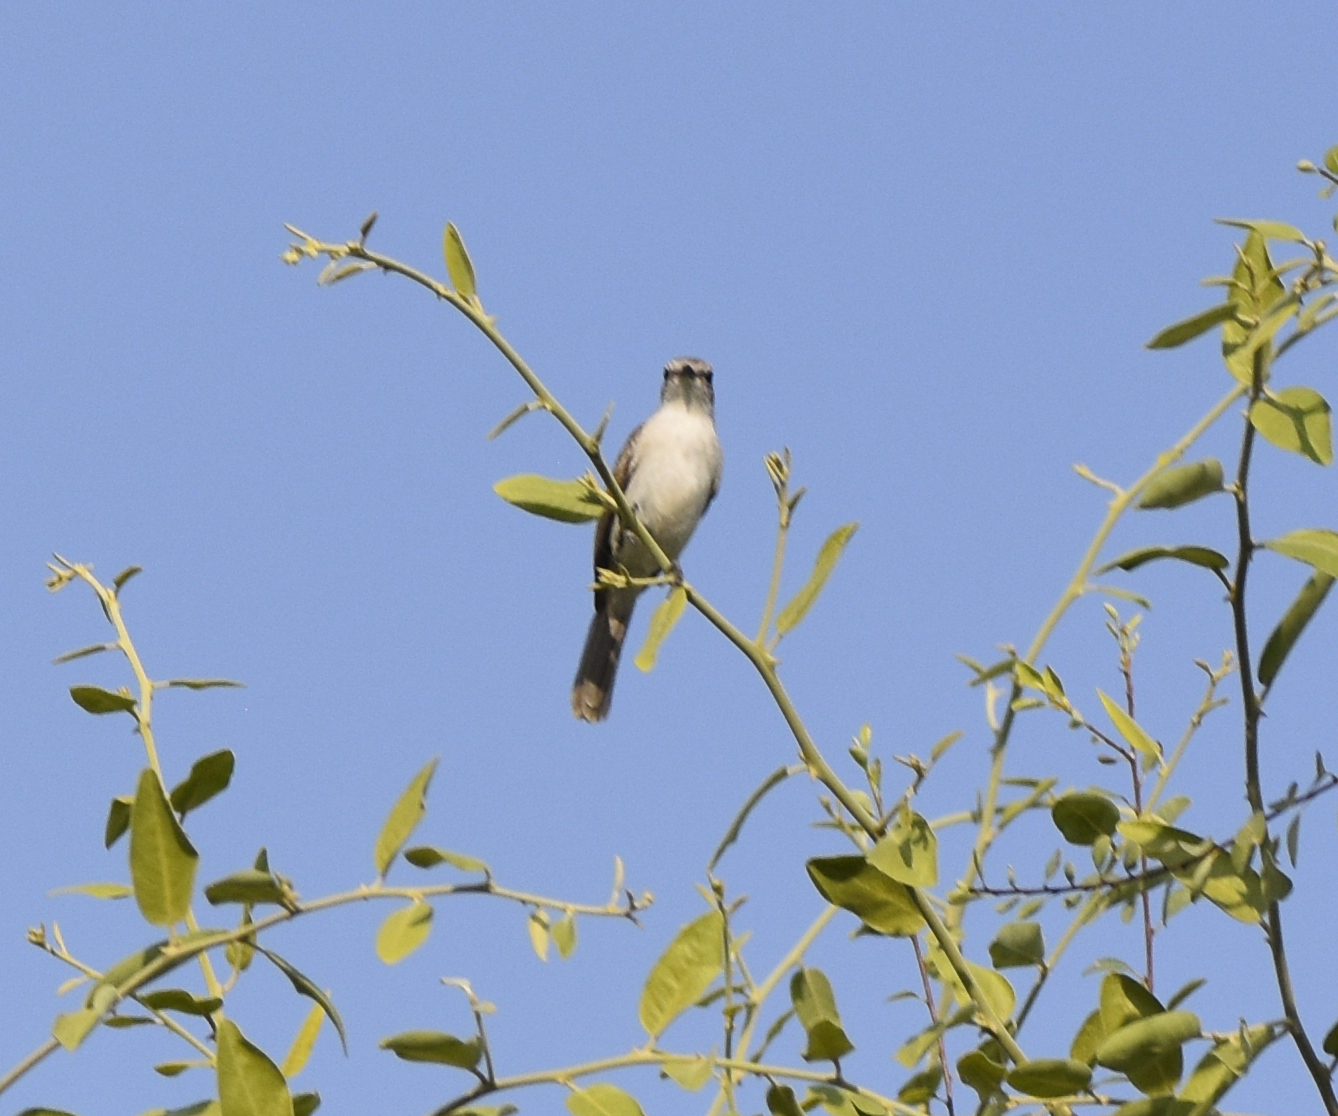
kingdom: Animalia
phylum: Chordata
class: Aves
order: Passeriformes
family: Muscicapidae
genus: Bradornis
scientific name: Bradornis pallidus
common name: Pale flycatcher
